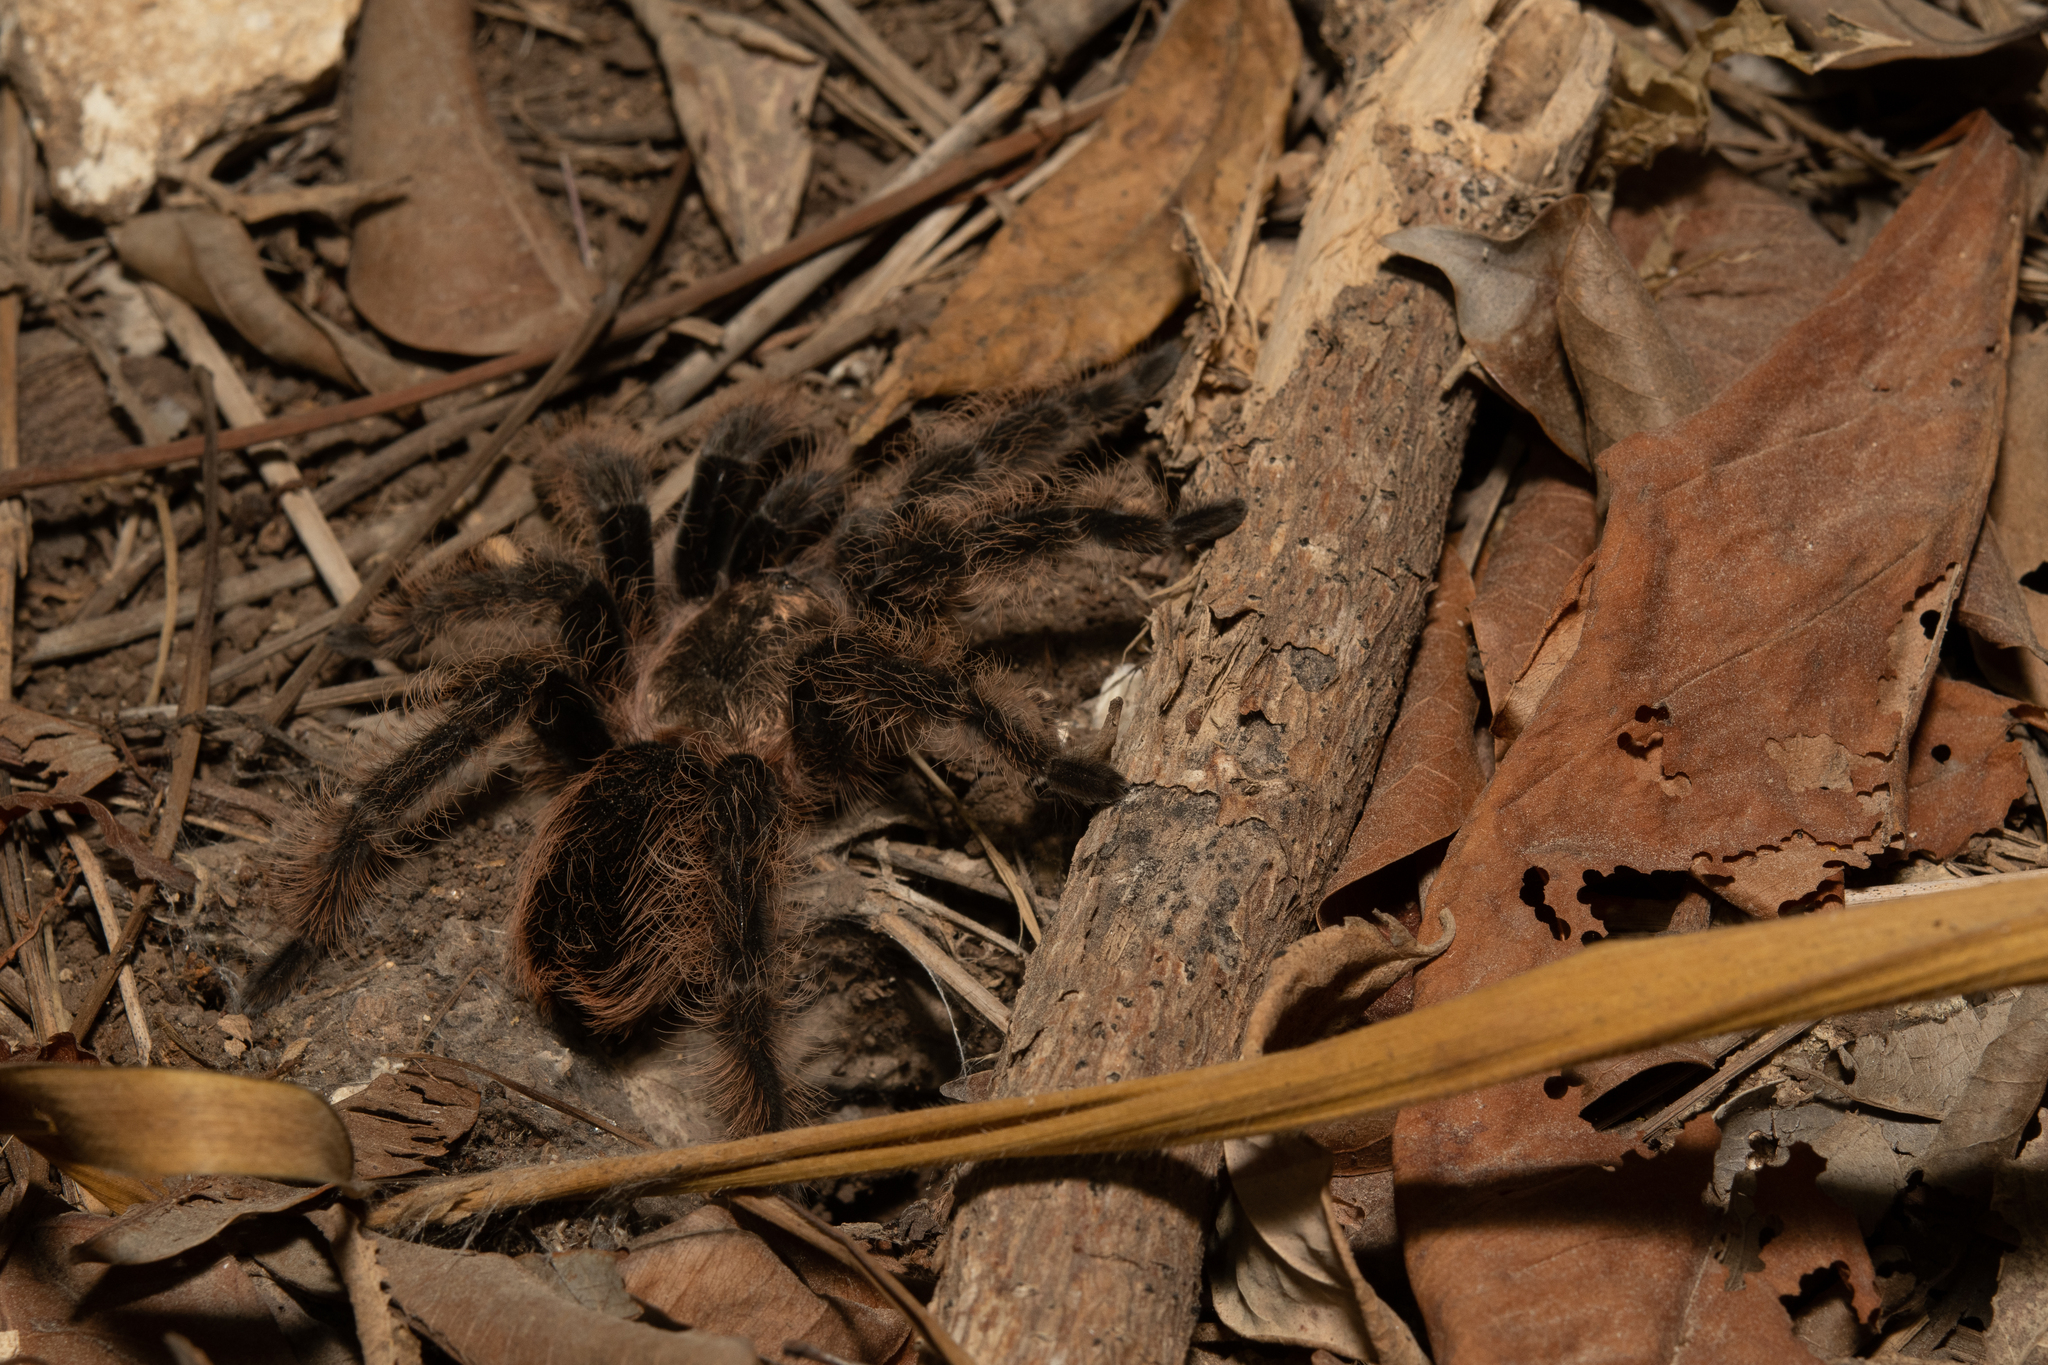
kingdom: Animalia
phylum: Arthropoda
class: Arachnida
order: Araneae
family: Theraphosidae
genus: Tliltocatl
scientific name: Tliltocatl albopilosus
